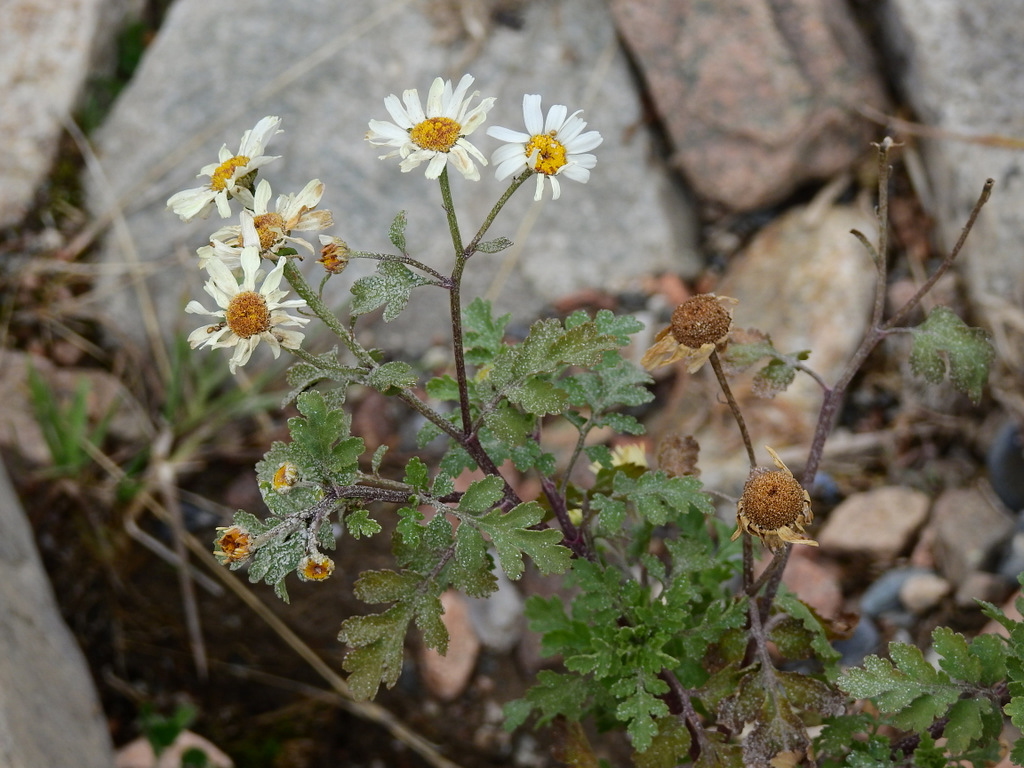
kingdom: Plantae
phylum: Tracheophyta
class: Magnoliopsida
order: Asterales
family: Asteraceae
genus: Tanacetum
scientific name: Tanacetum parthenium
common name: Feverfew
